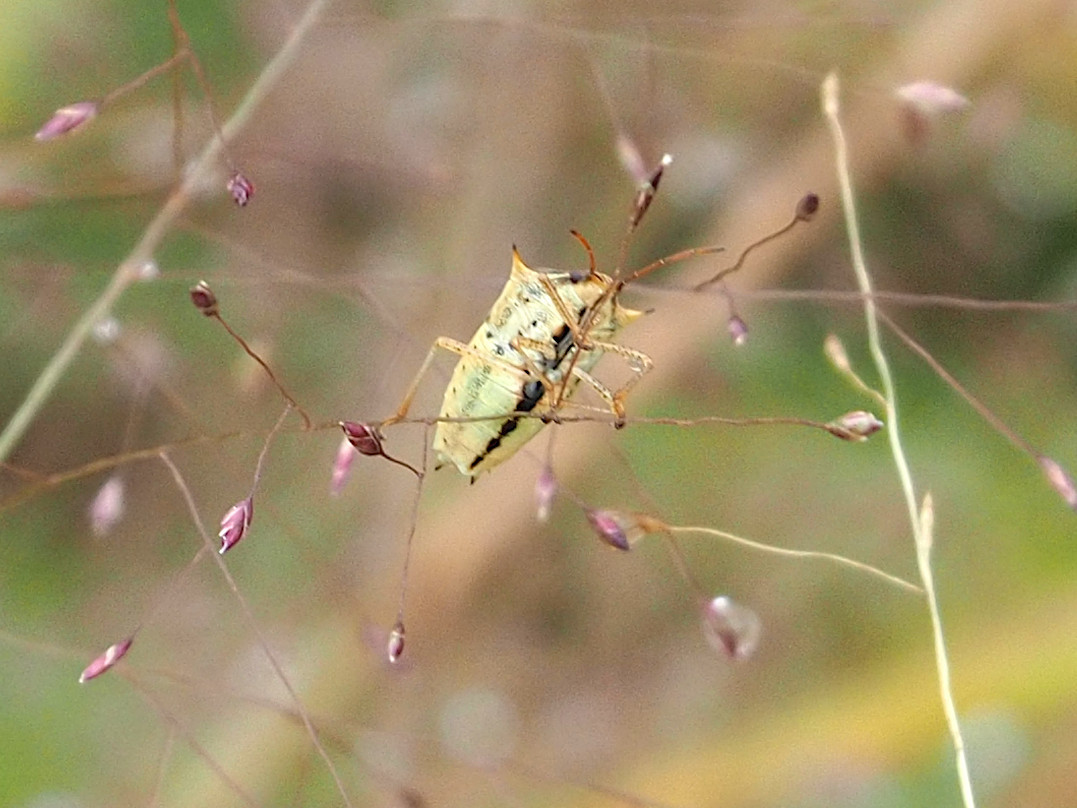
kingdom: Animalia
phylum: Arthropoda
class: Insecta
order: Hemiptera
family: Pentatomidae
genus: Oebalus
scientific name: Oebalus pugnax
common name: Rice stink bug
